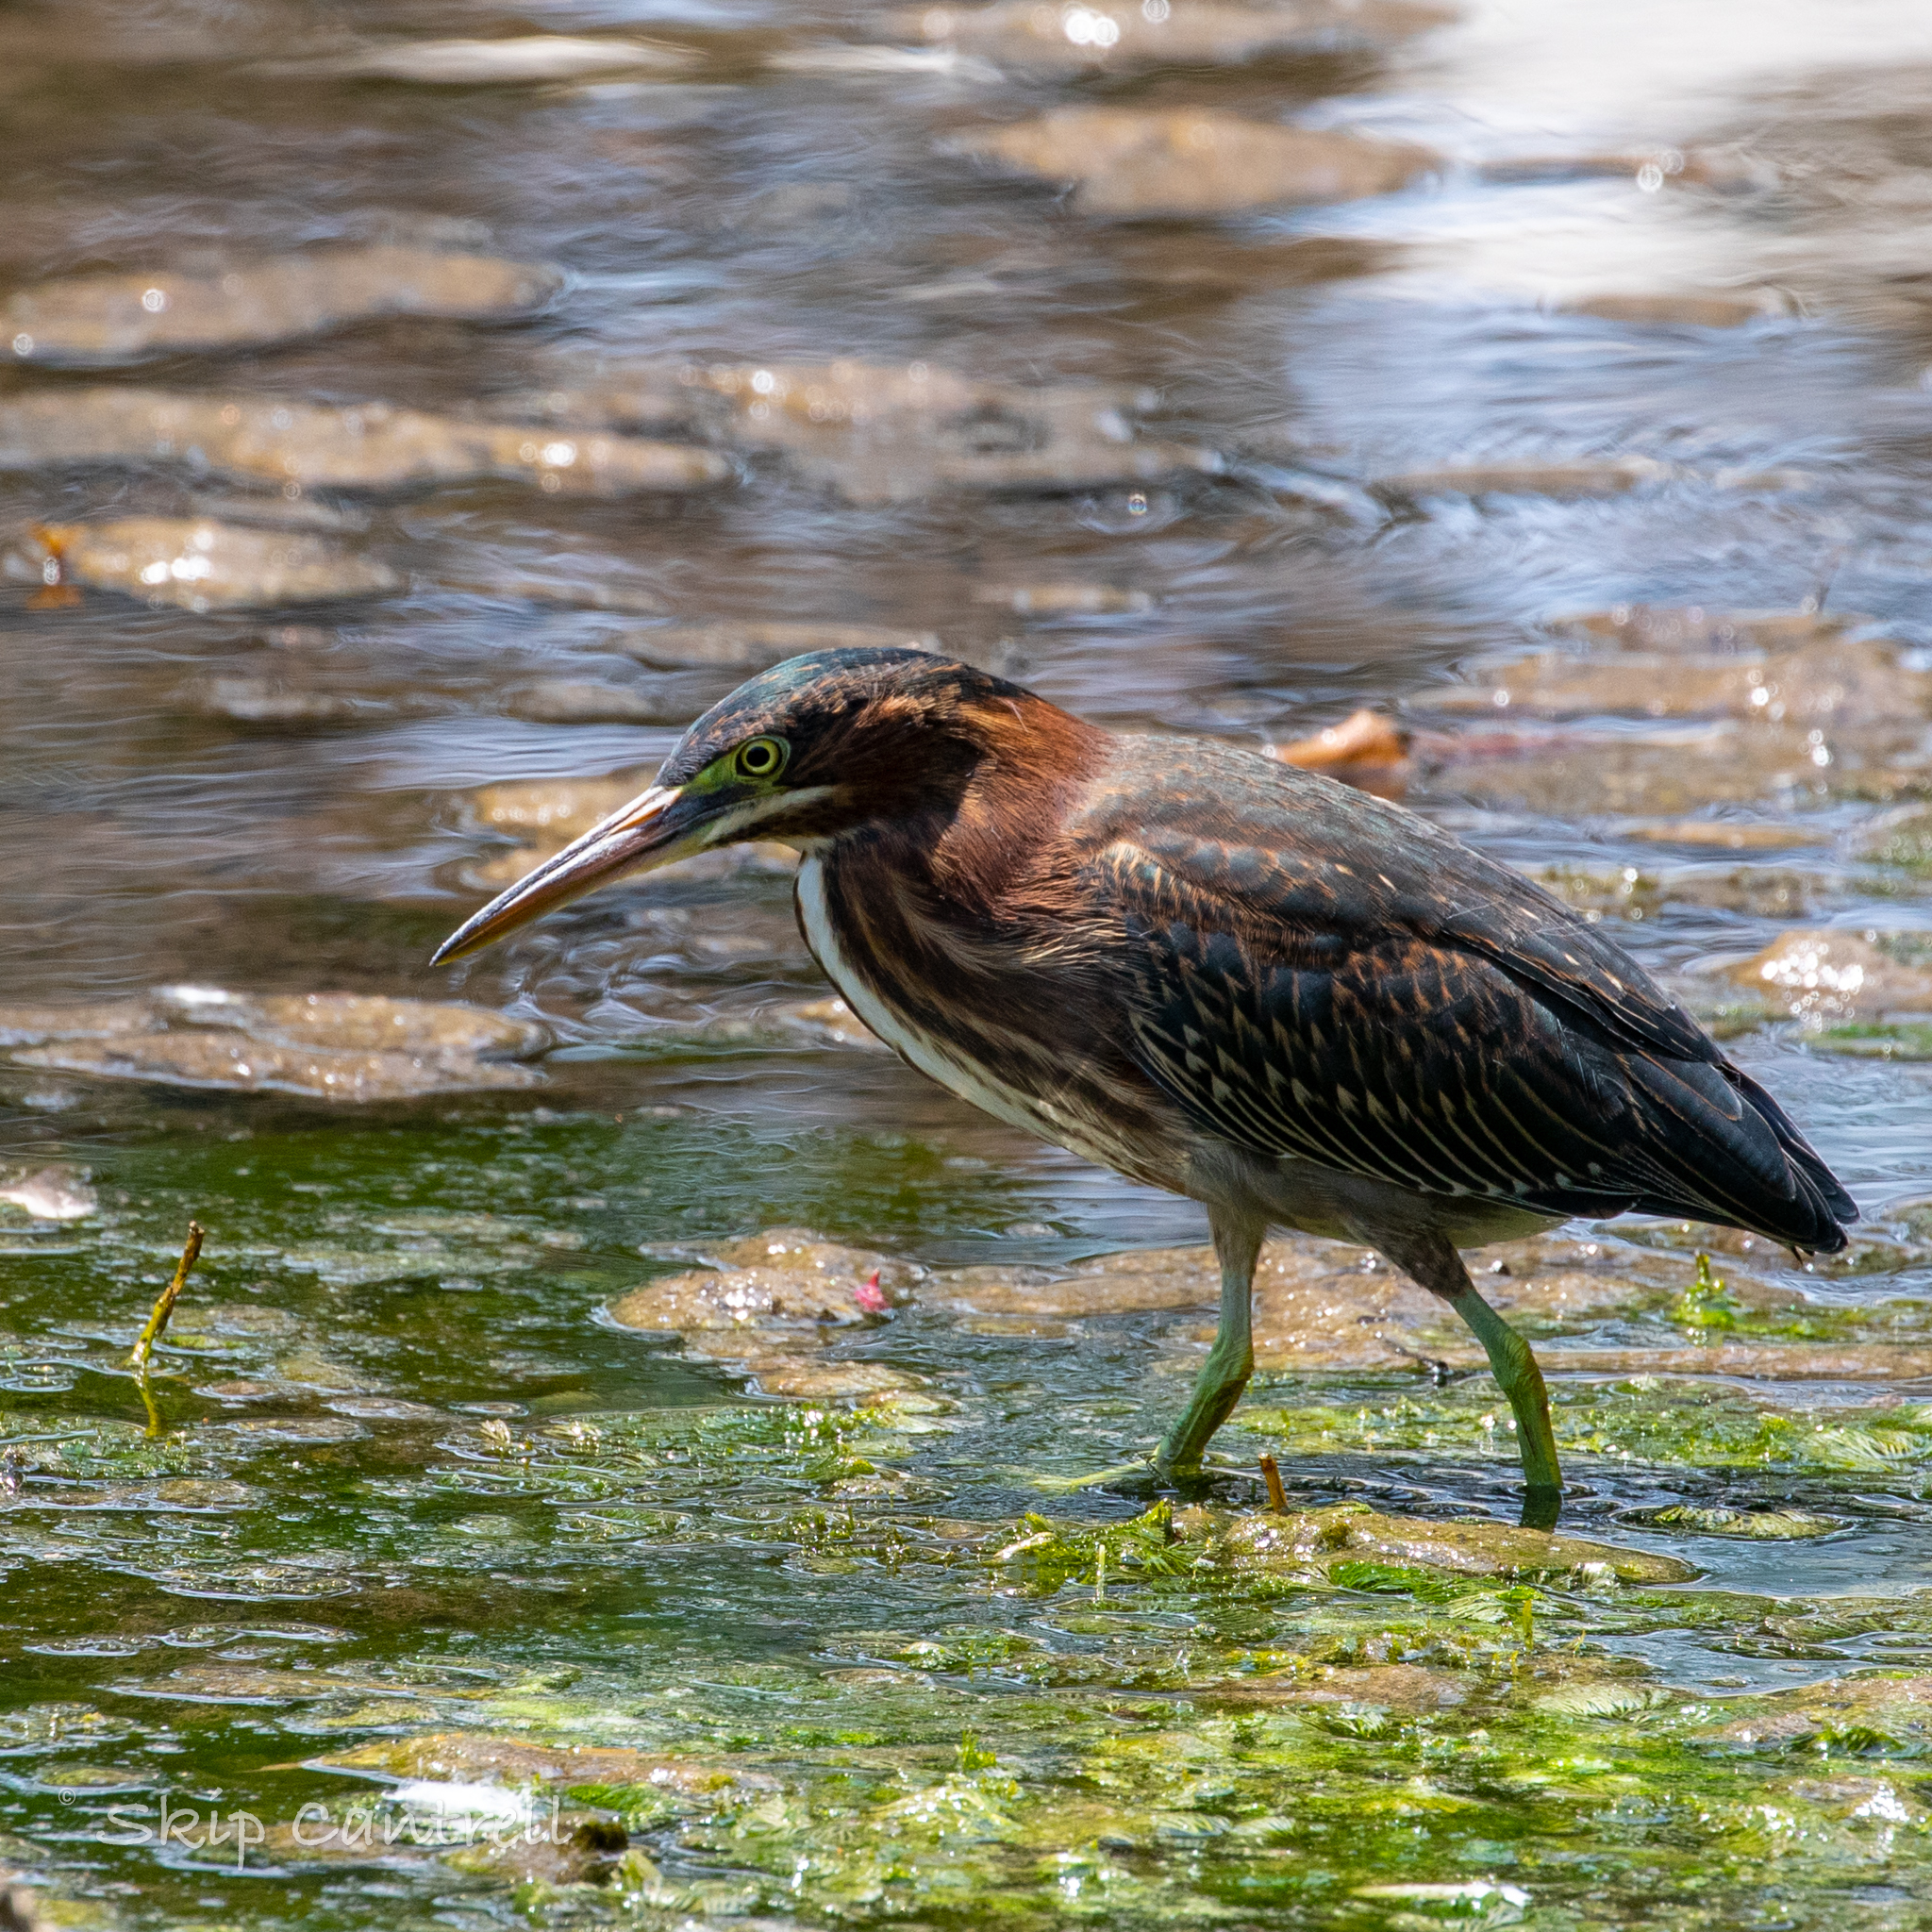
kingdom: Animalia
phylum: Chordata
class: Aves
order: Pelecaniformes
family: Ardeidae
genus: Butorides
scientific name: Butorides virescens
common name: Green heron
